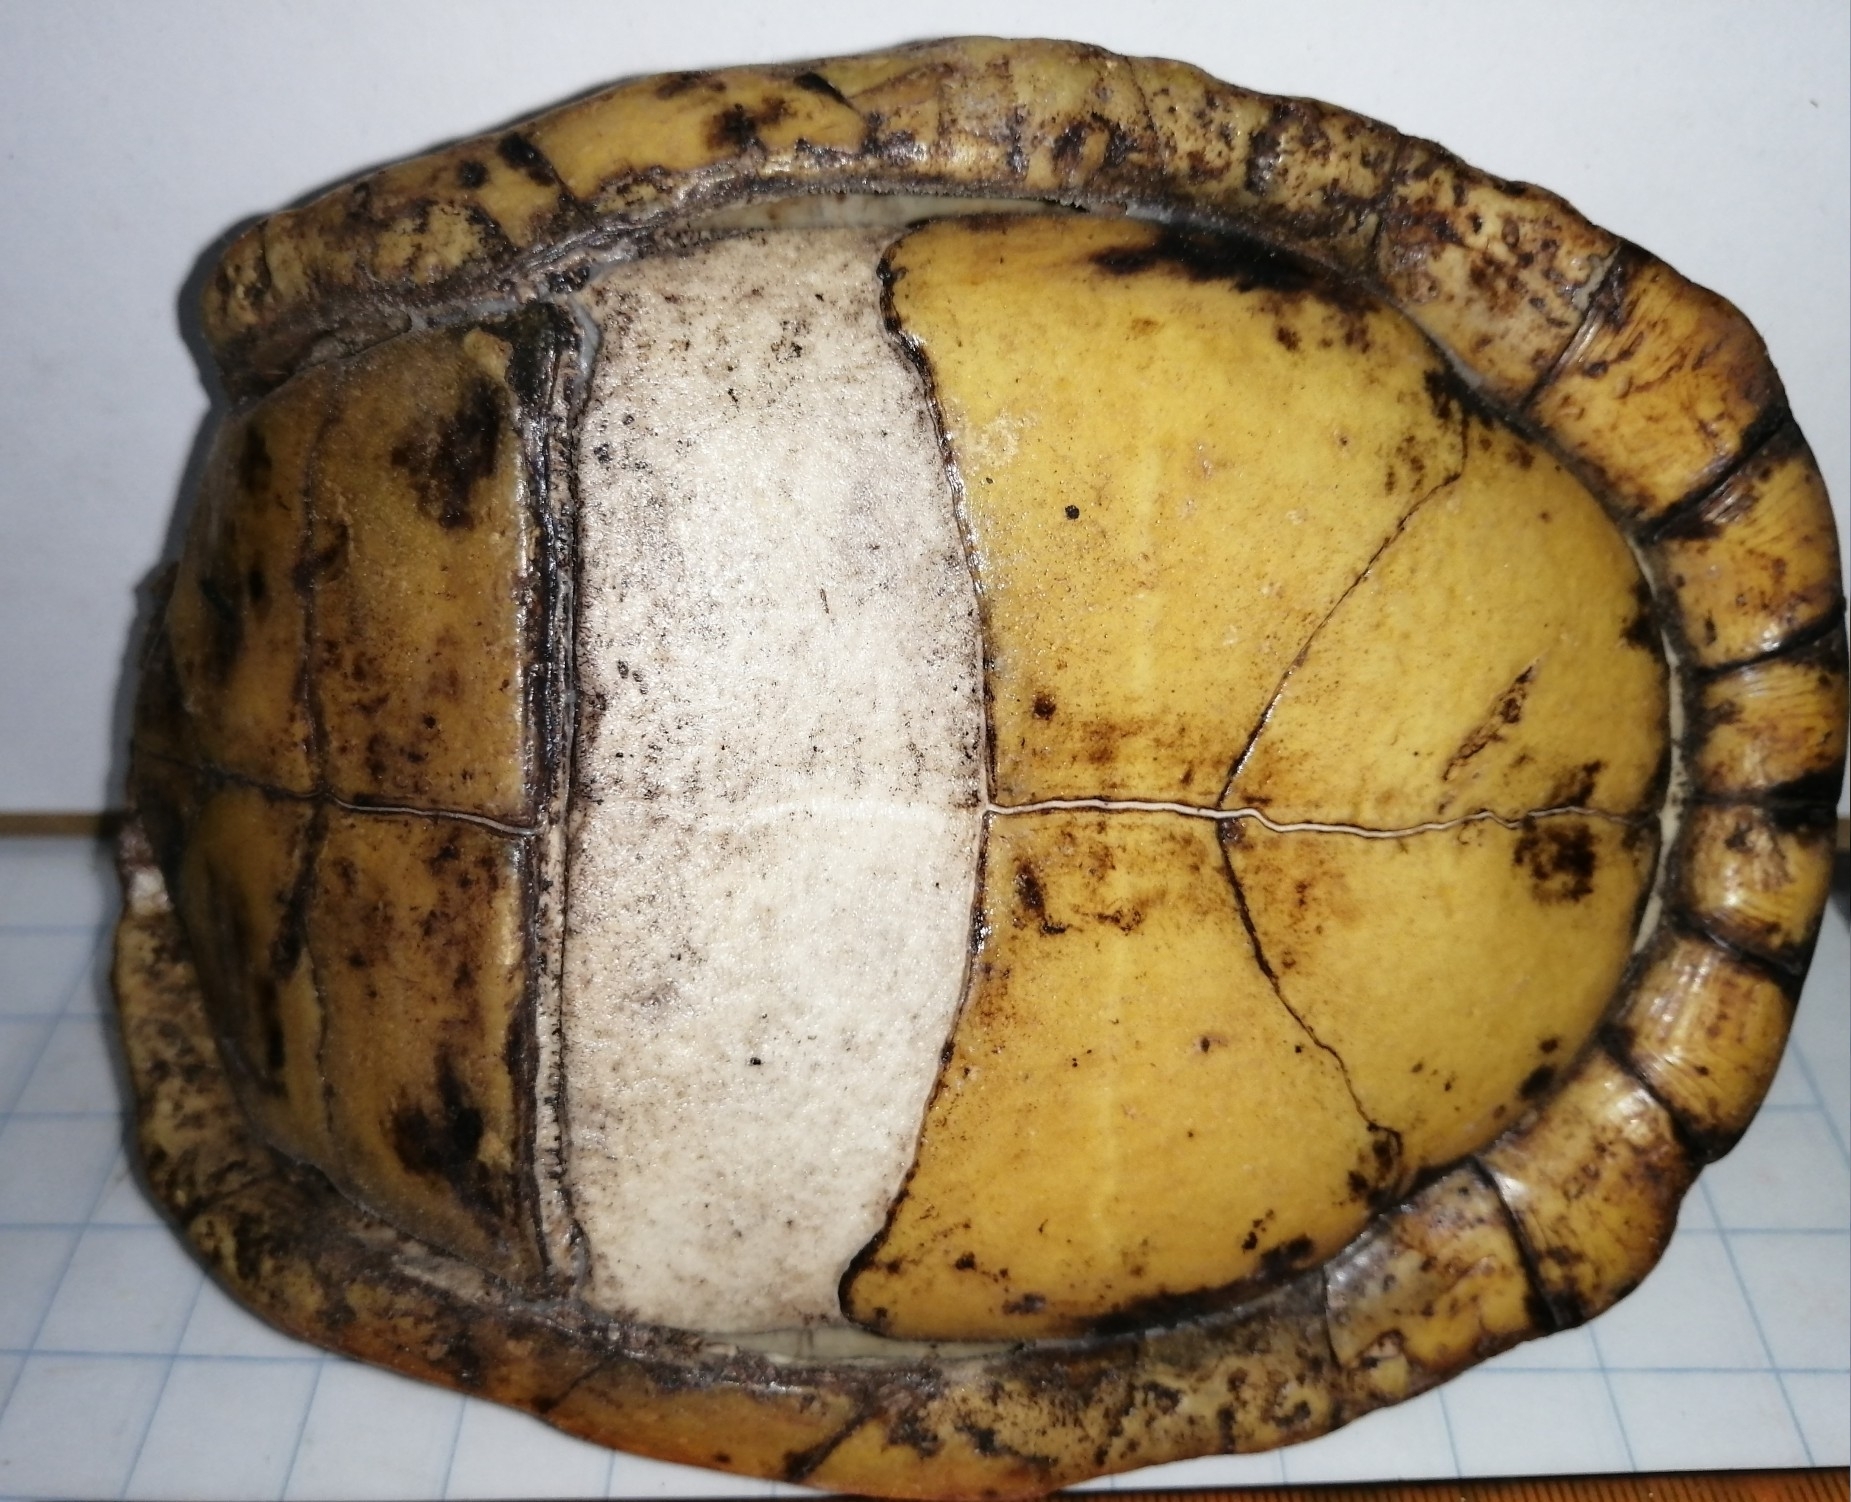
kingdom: Animalia
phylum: Chordata
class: Testudines
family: Emydidae
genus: Terrapene
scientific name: Terrapene yucatana
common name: Yucatan box turtle
